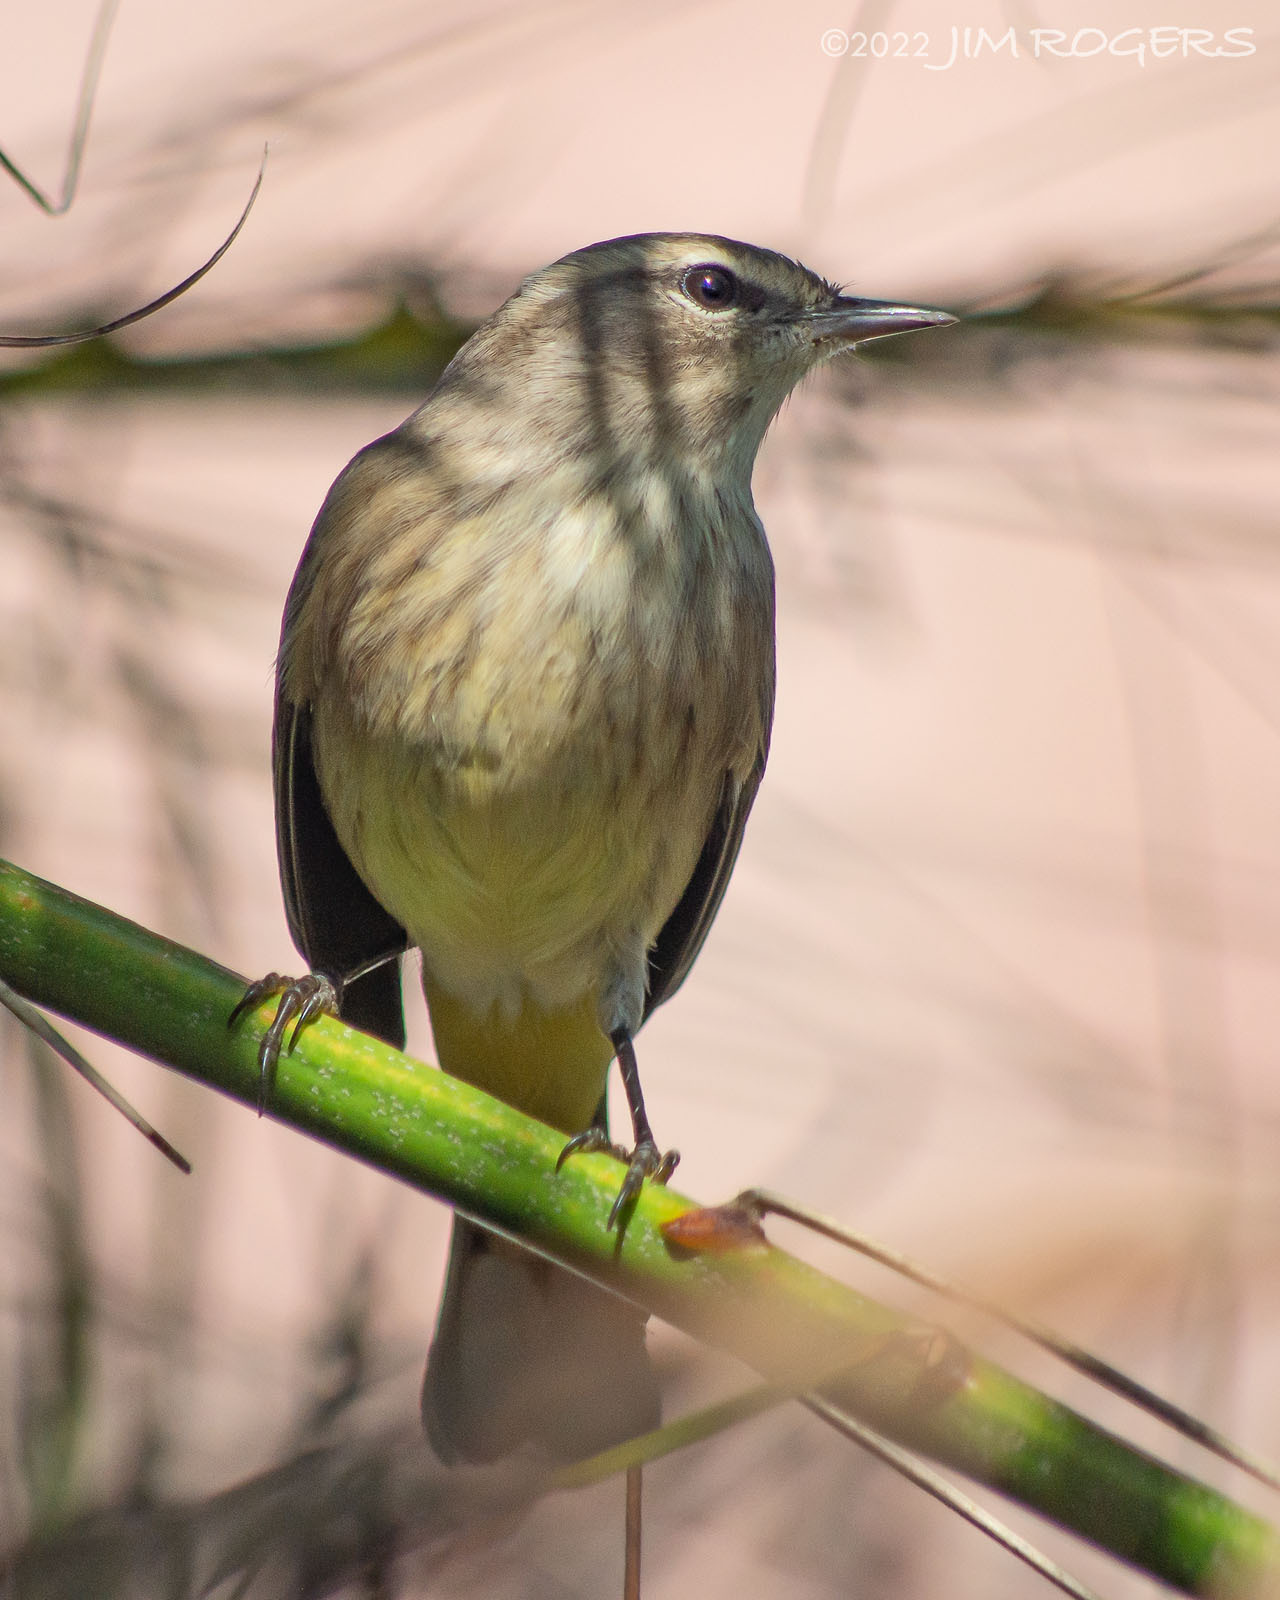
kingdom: Animalia
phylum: Chordata
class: Aves
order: Passeriformes
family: Parulidae
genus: Setophaga
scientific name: Setophaga palmarum
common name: Palm warbler
